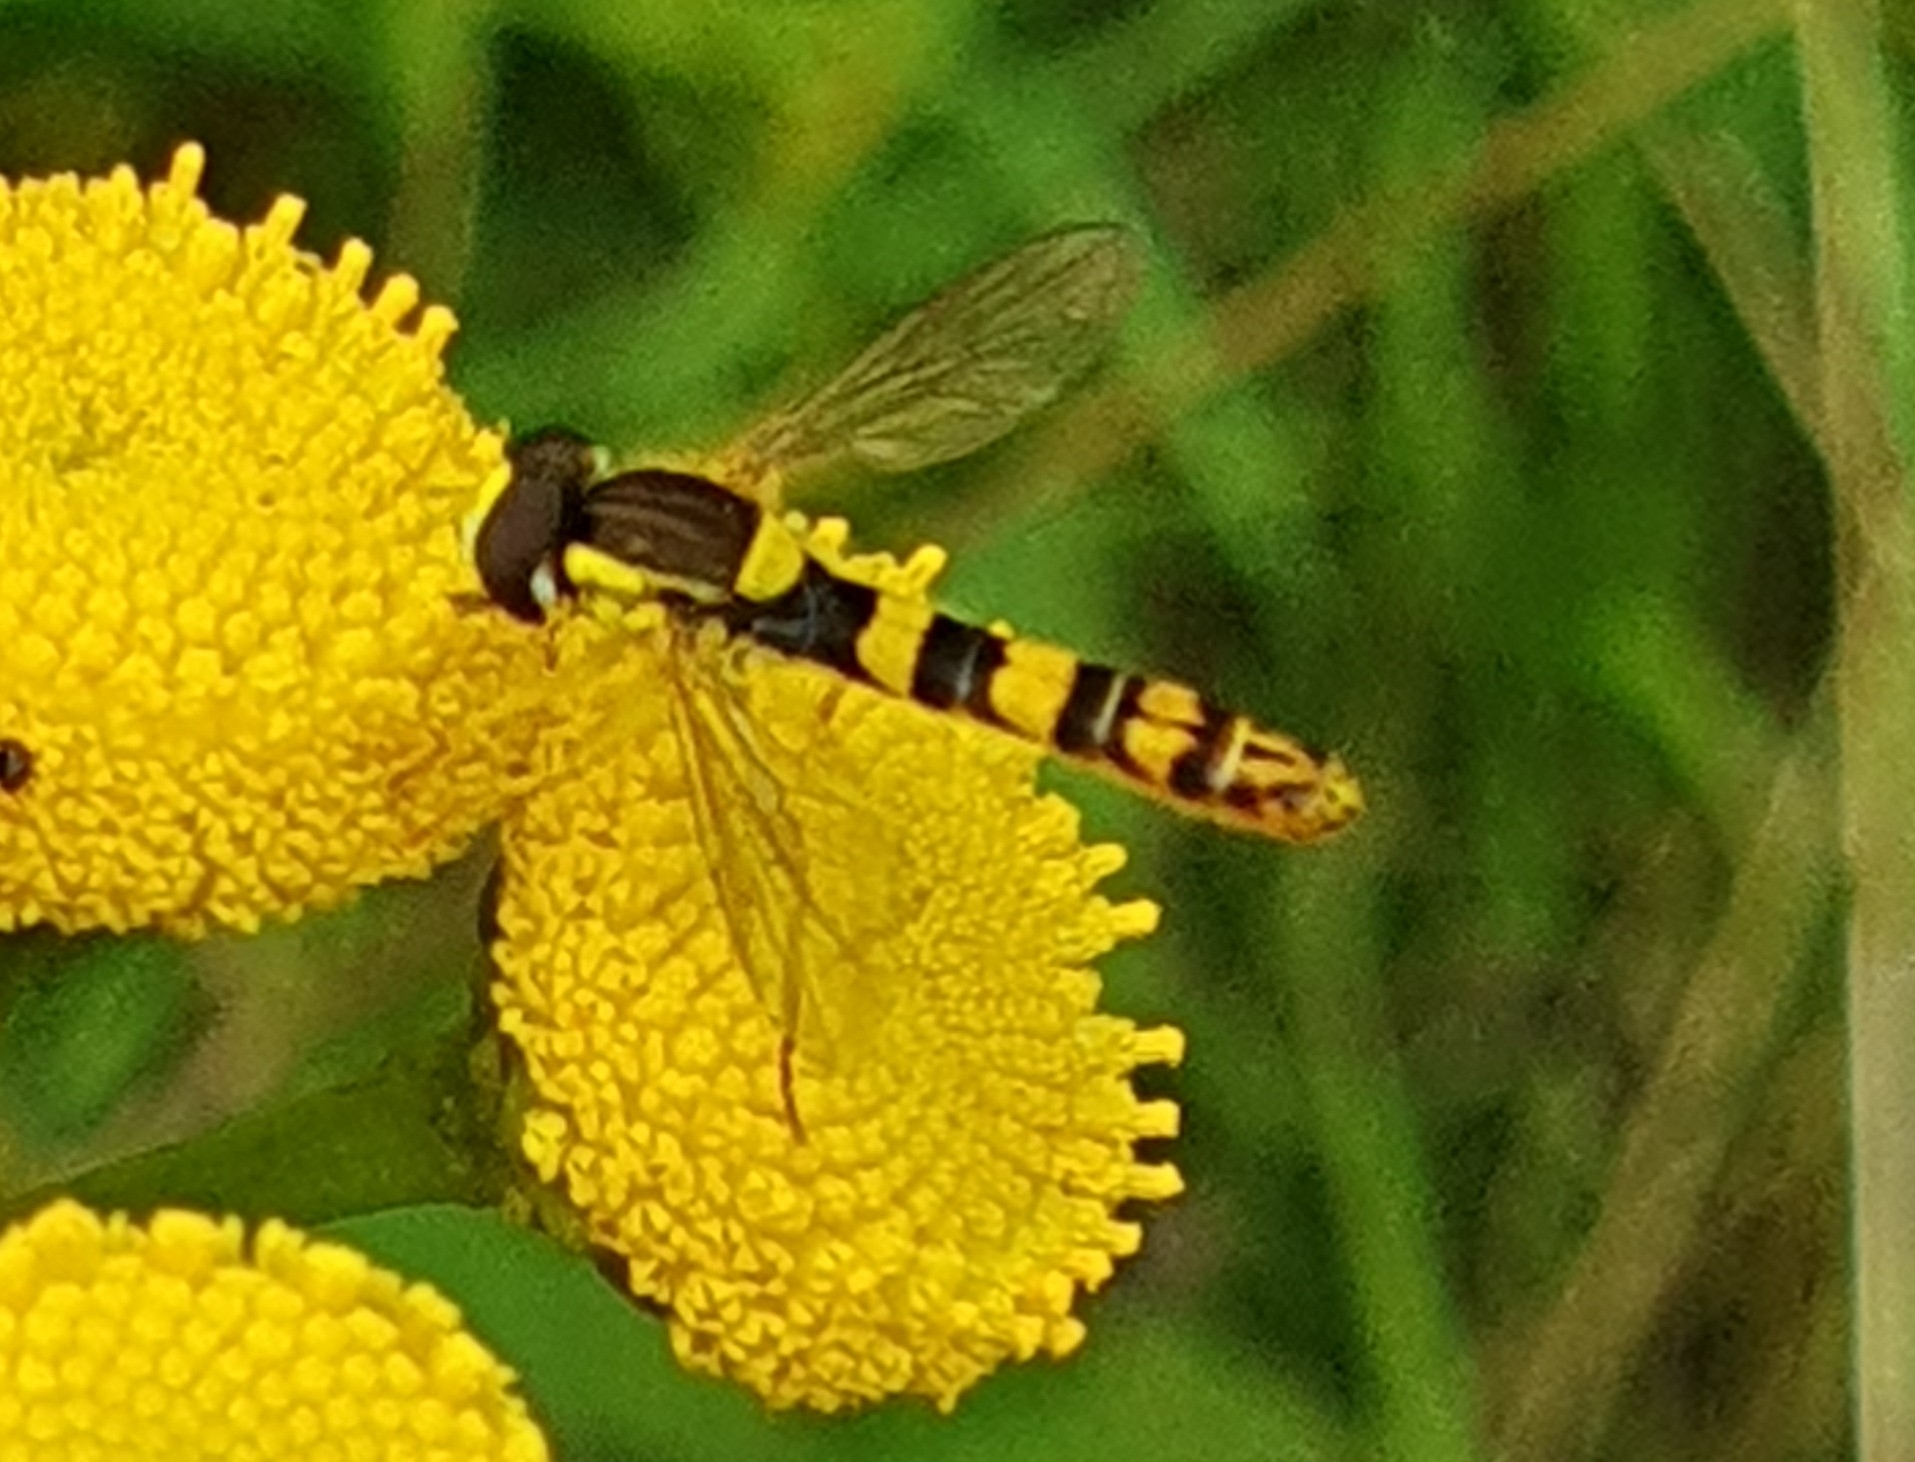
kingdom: Animalia
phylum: Arthropoda
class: Insecta
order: Diptera
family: Syrphidae
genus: Sphaerophoria
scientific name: Sphaerophoria scripta
